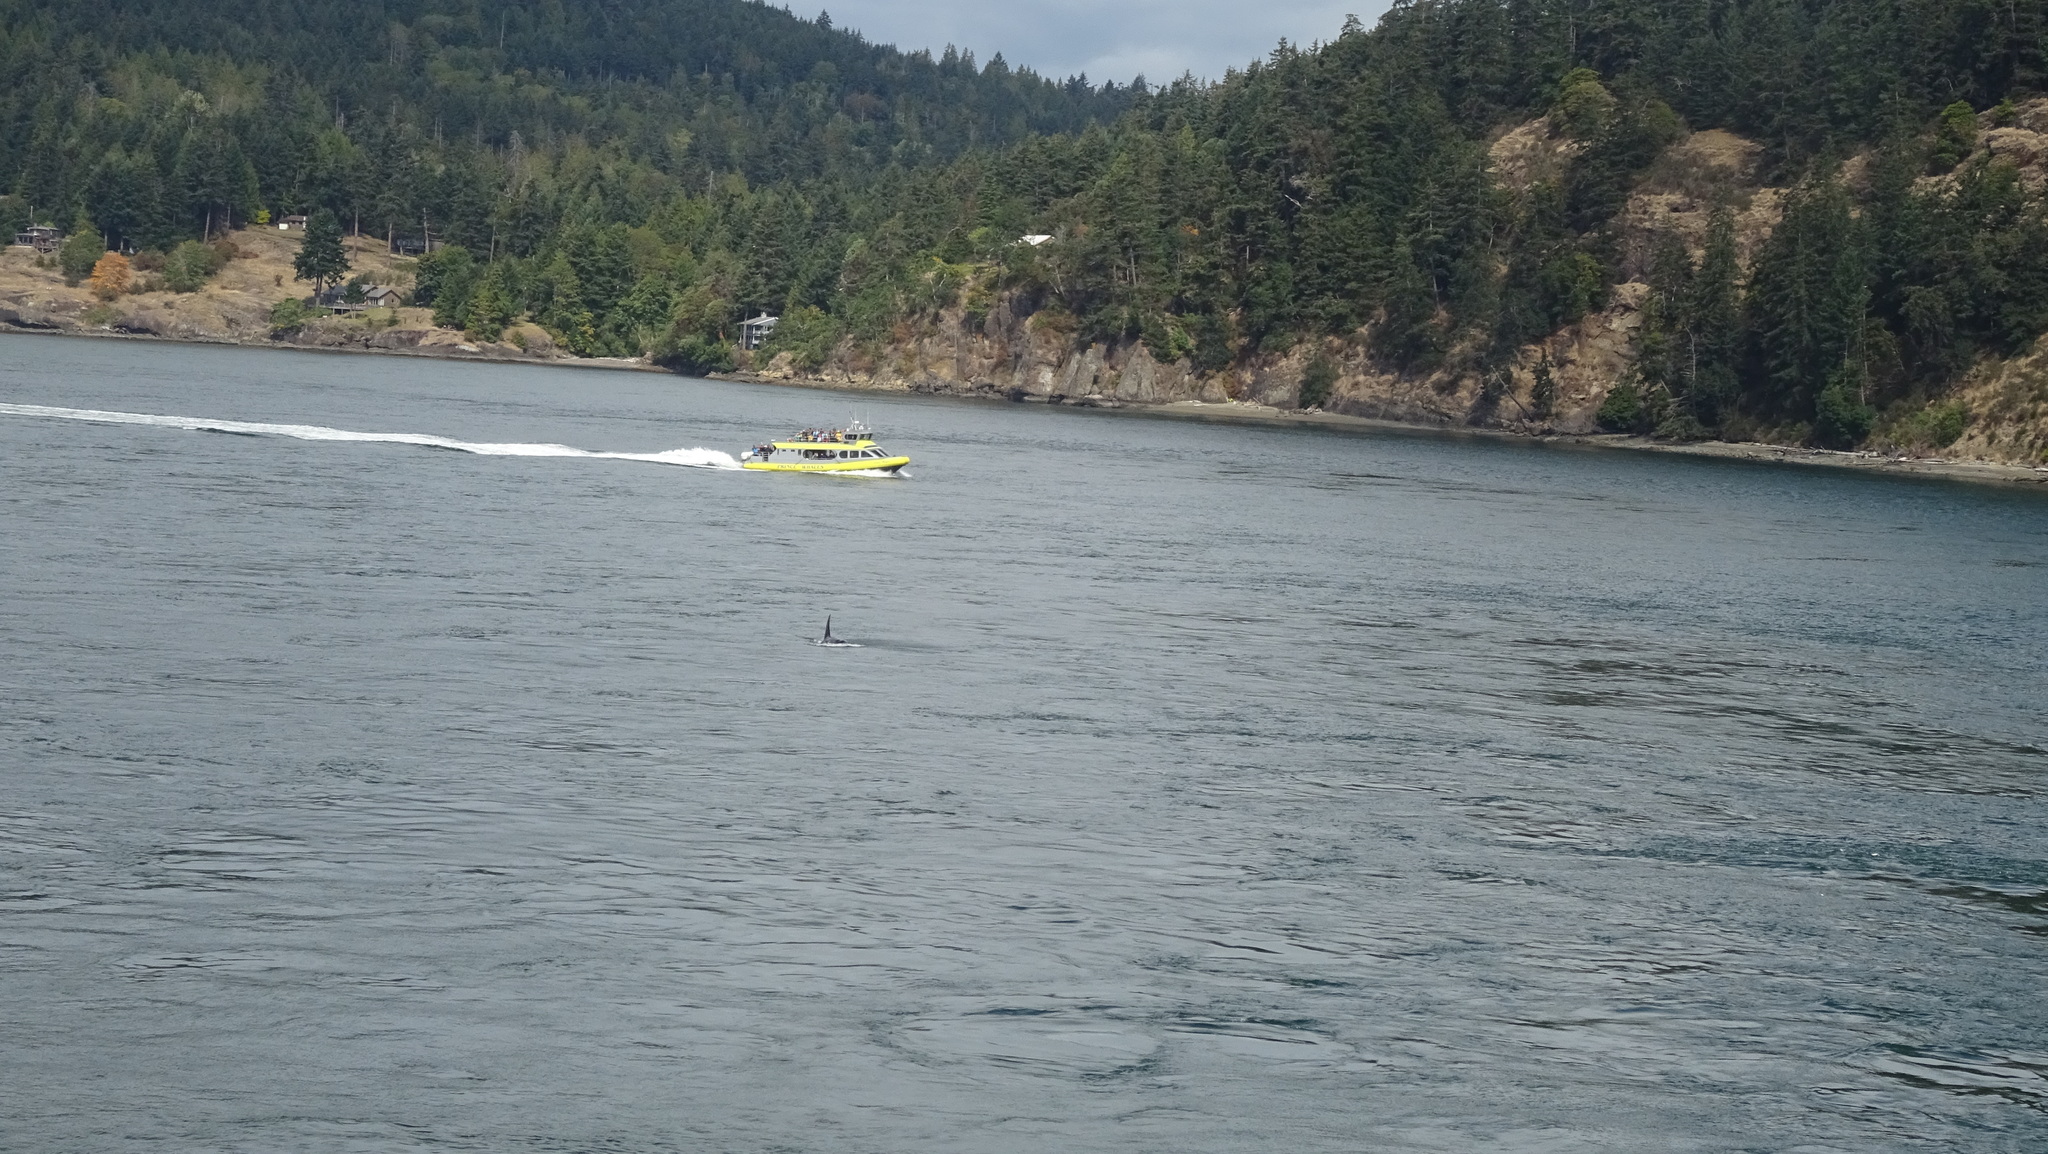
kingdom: Animalia
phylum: Chordata
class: Mammalia
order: Cetacea
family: Delphinidae
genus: Orcinus
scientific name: Orcinus orca
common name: Killer whale
